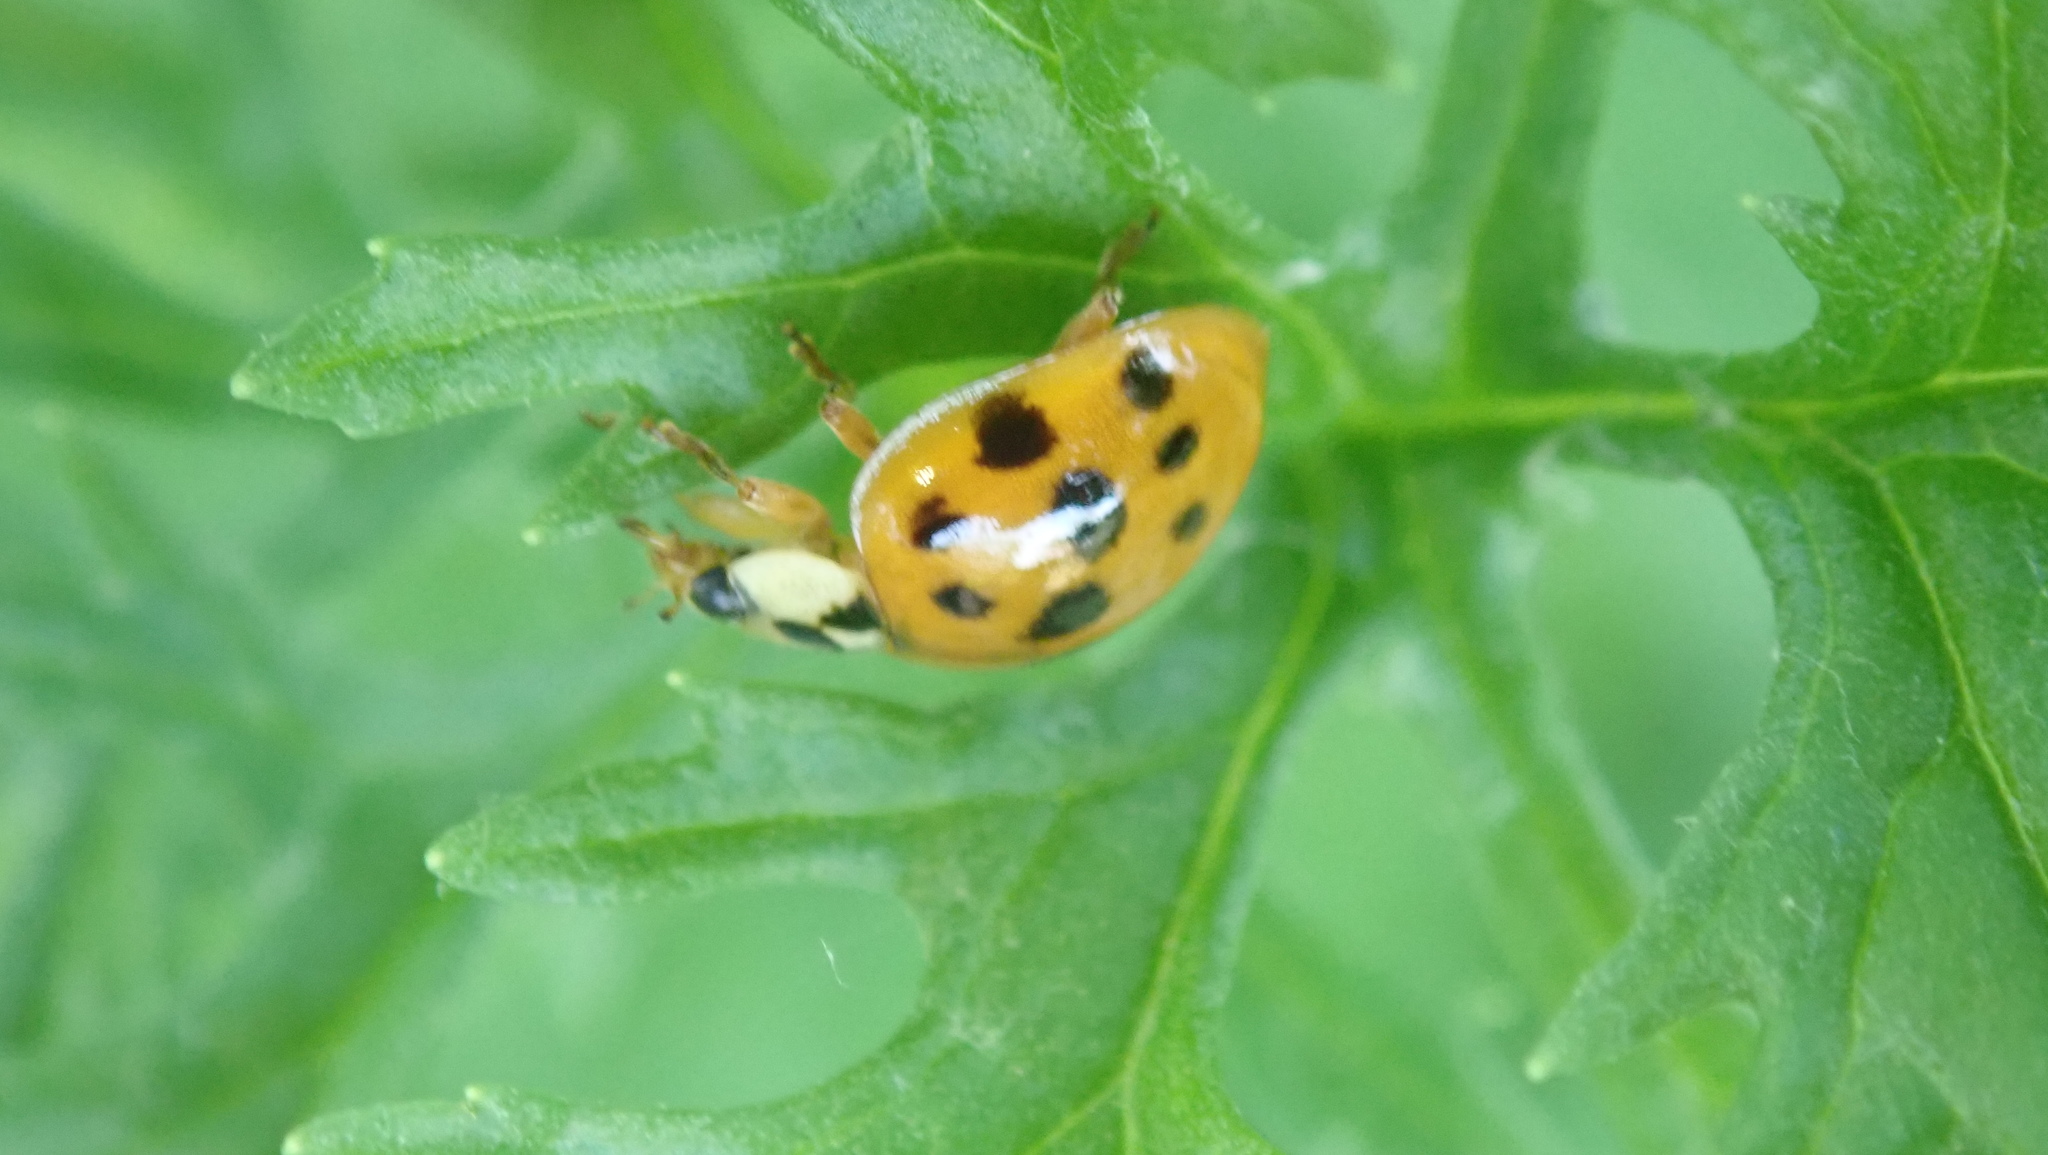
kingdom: Animalia
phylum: Arthropoda
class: Insecta
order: Coleoptera
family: Coccinellidae
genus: Harmonia
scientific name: Harmonia axyridis
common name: Harlequin ladybird
